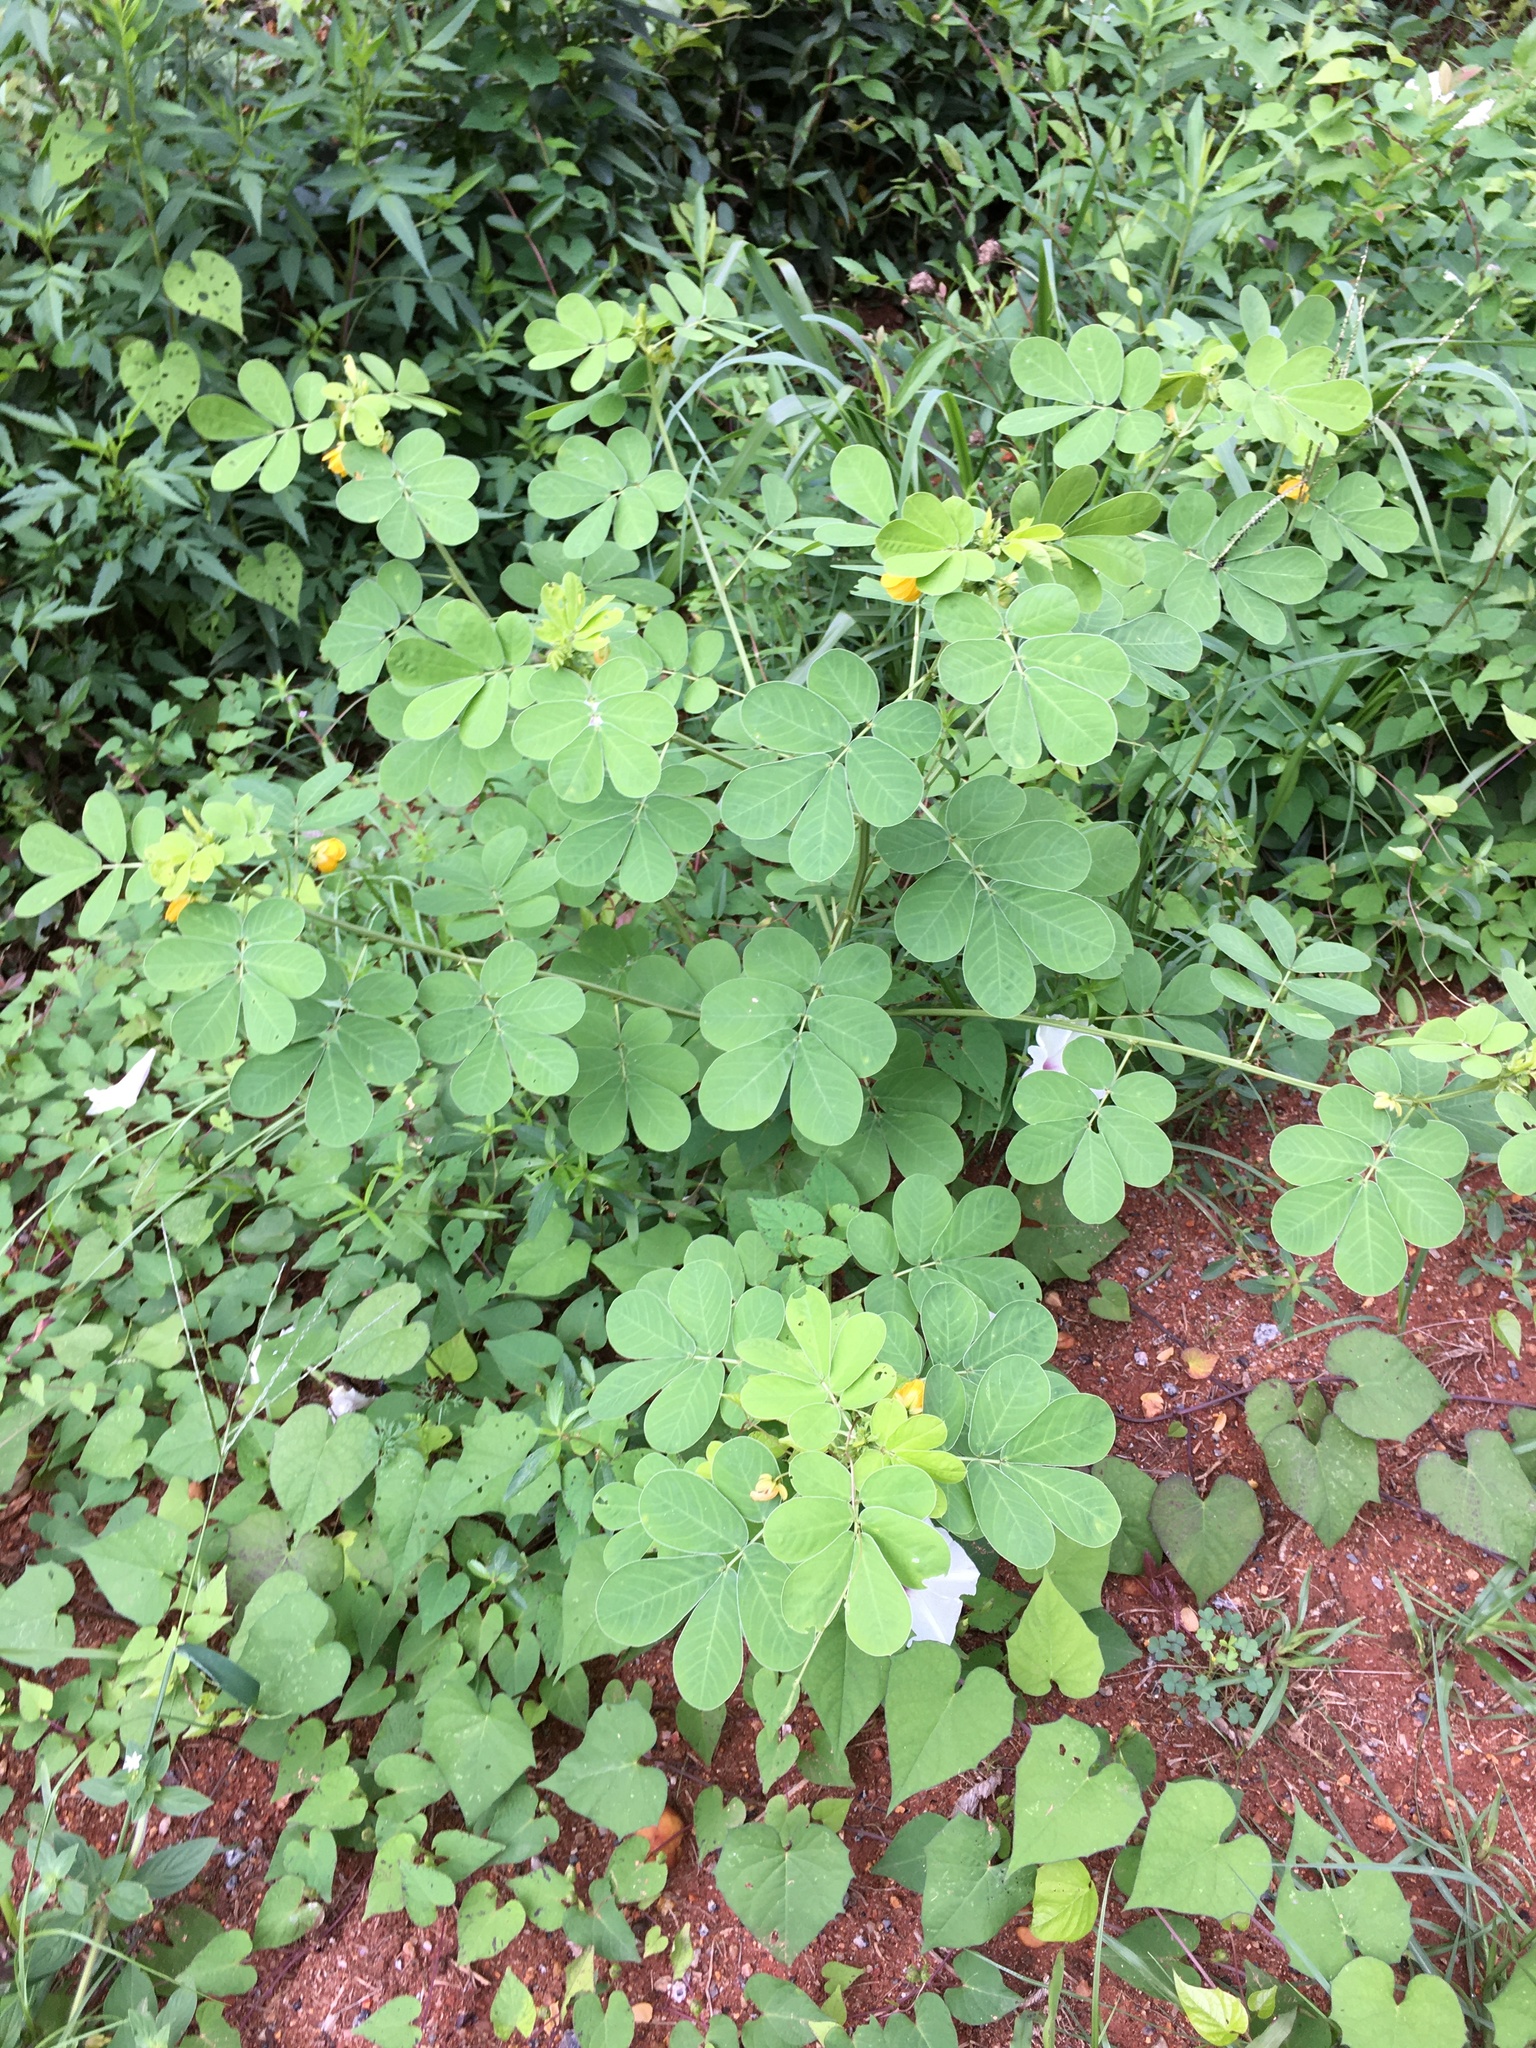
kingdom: Plantae
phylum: Tracheophyta
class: Magnoliopsida
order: Fabales
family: Fabaceae
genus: Senna
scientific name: Senna obtusifolia
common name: Java-bean
